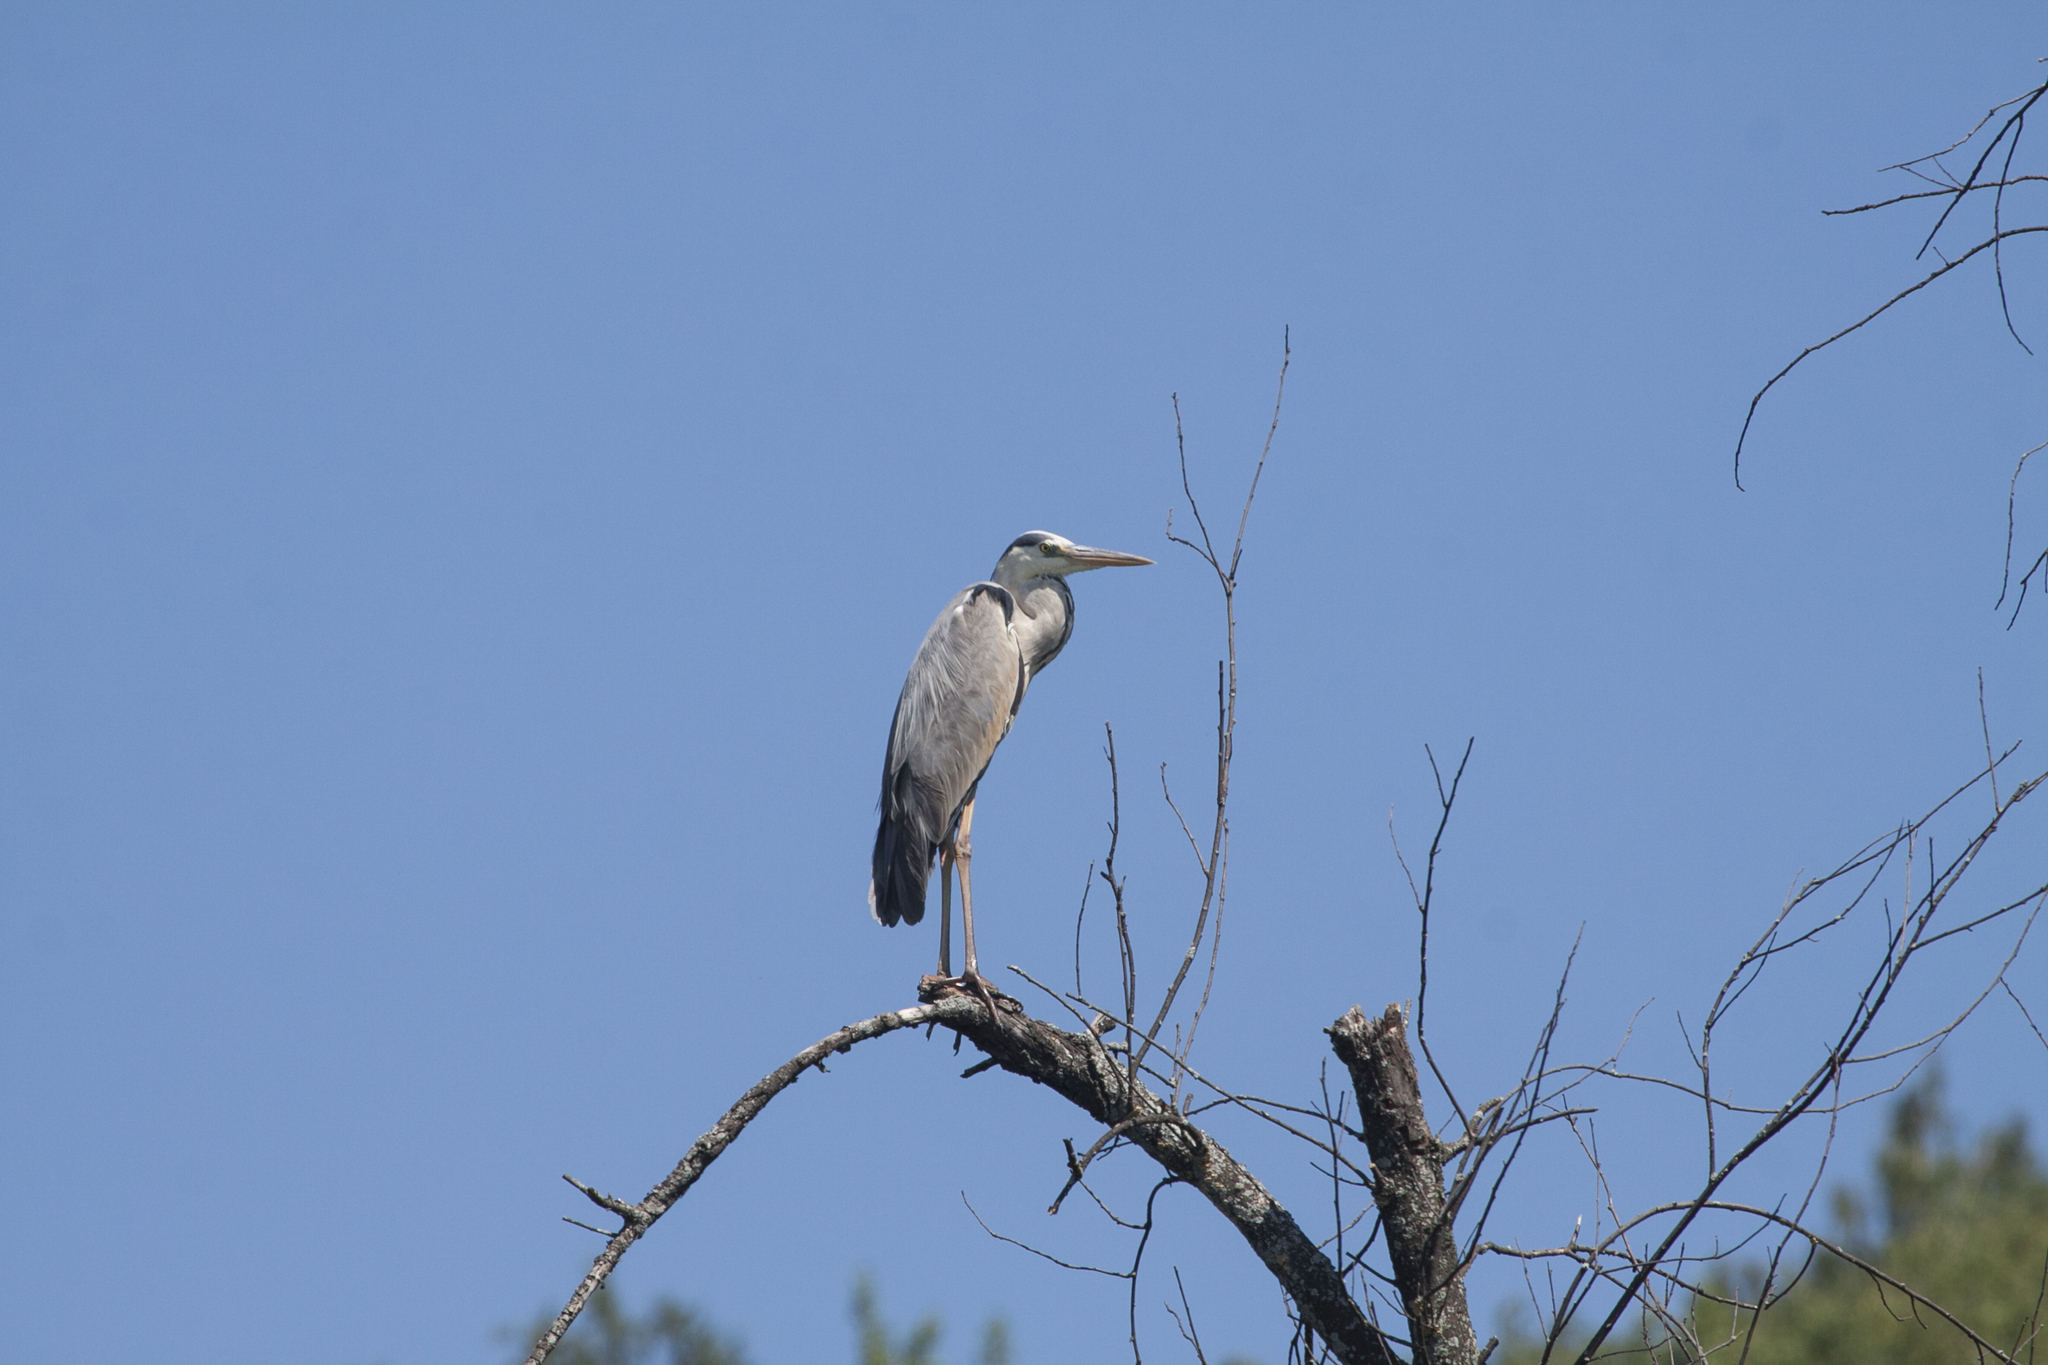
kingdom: Animalia
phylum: Chordata
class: Aves
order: Pelecaniformes
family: Ardeidae
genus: Ardea
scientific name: Ardea cinerea
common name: Grey heron
